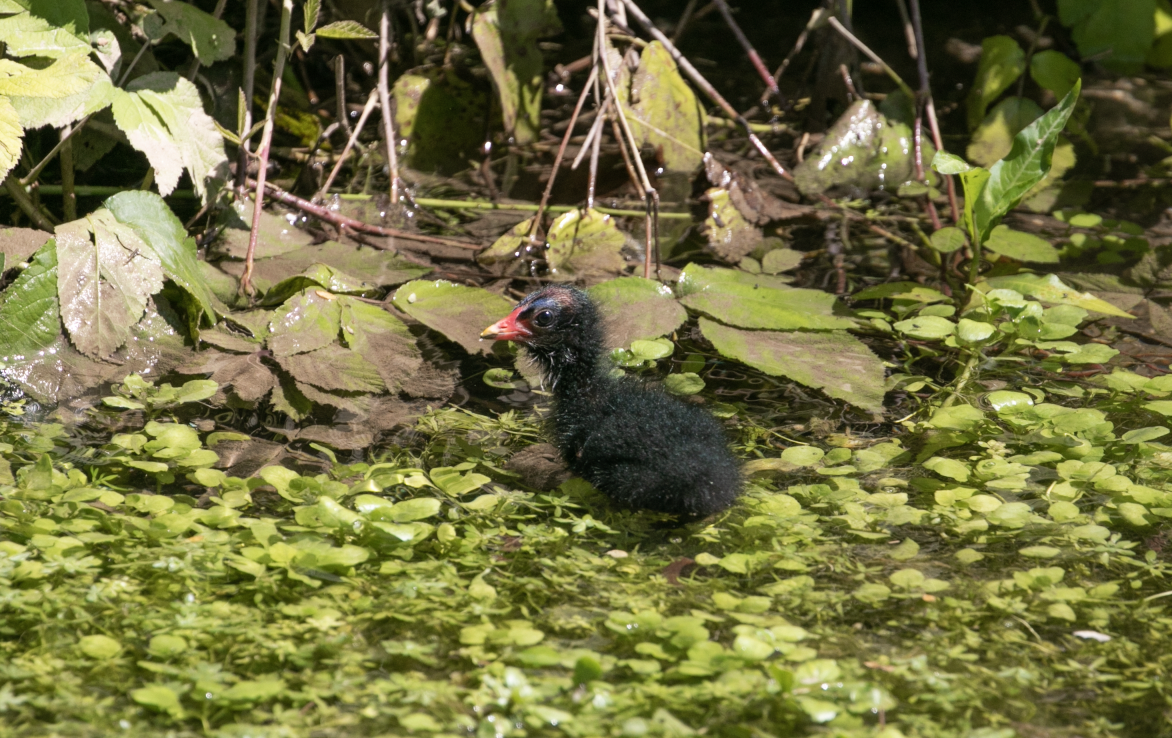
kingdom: Animalia
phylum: Chordata
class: Aves
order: Gruiformes
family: Rallidae
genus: Gallinula
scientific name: Gallinula chloropus
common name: Common moorhen
